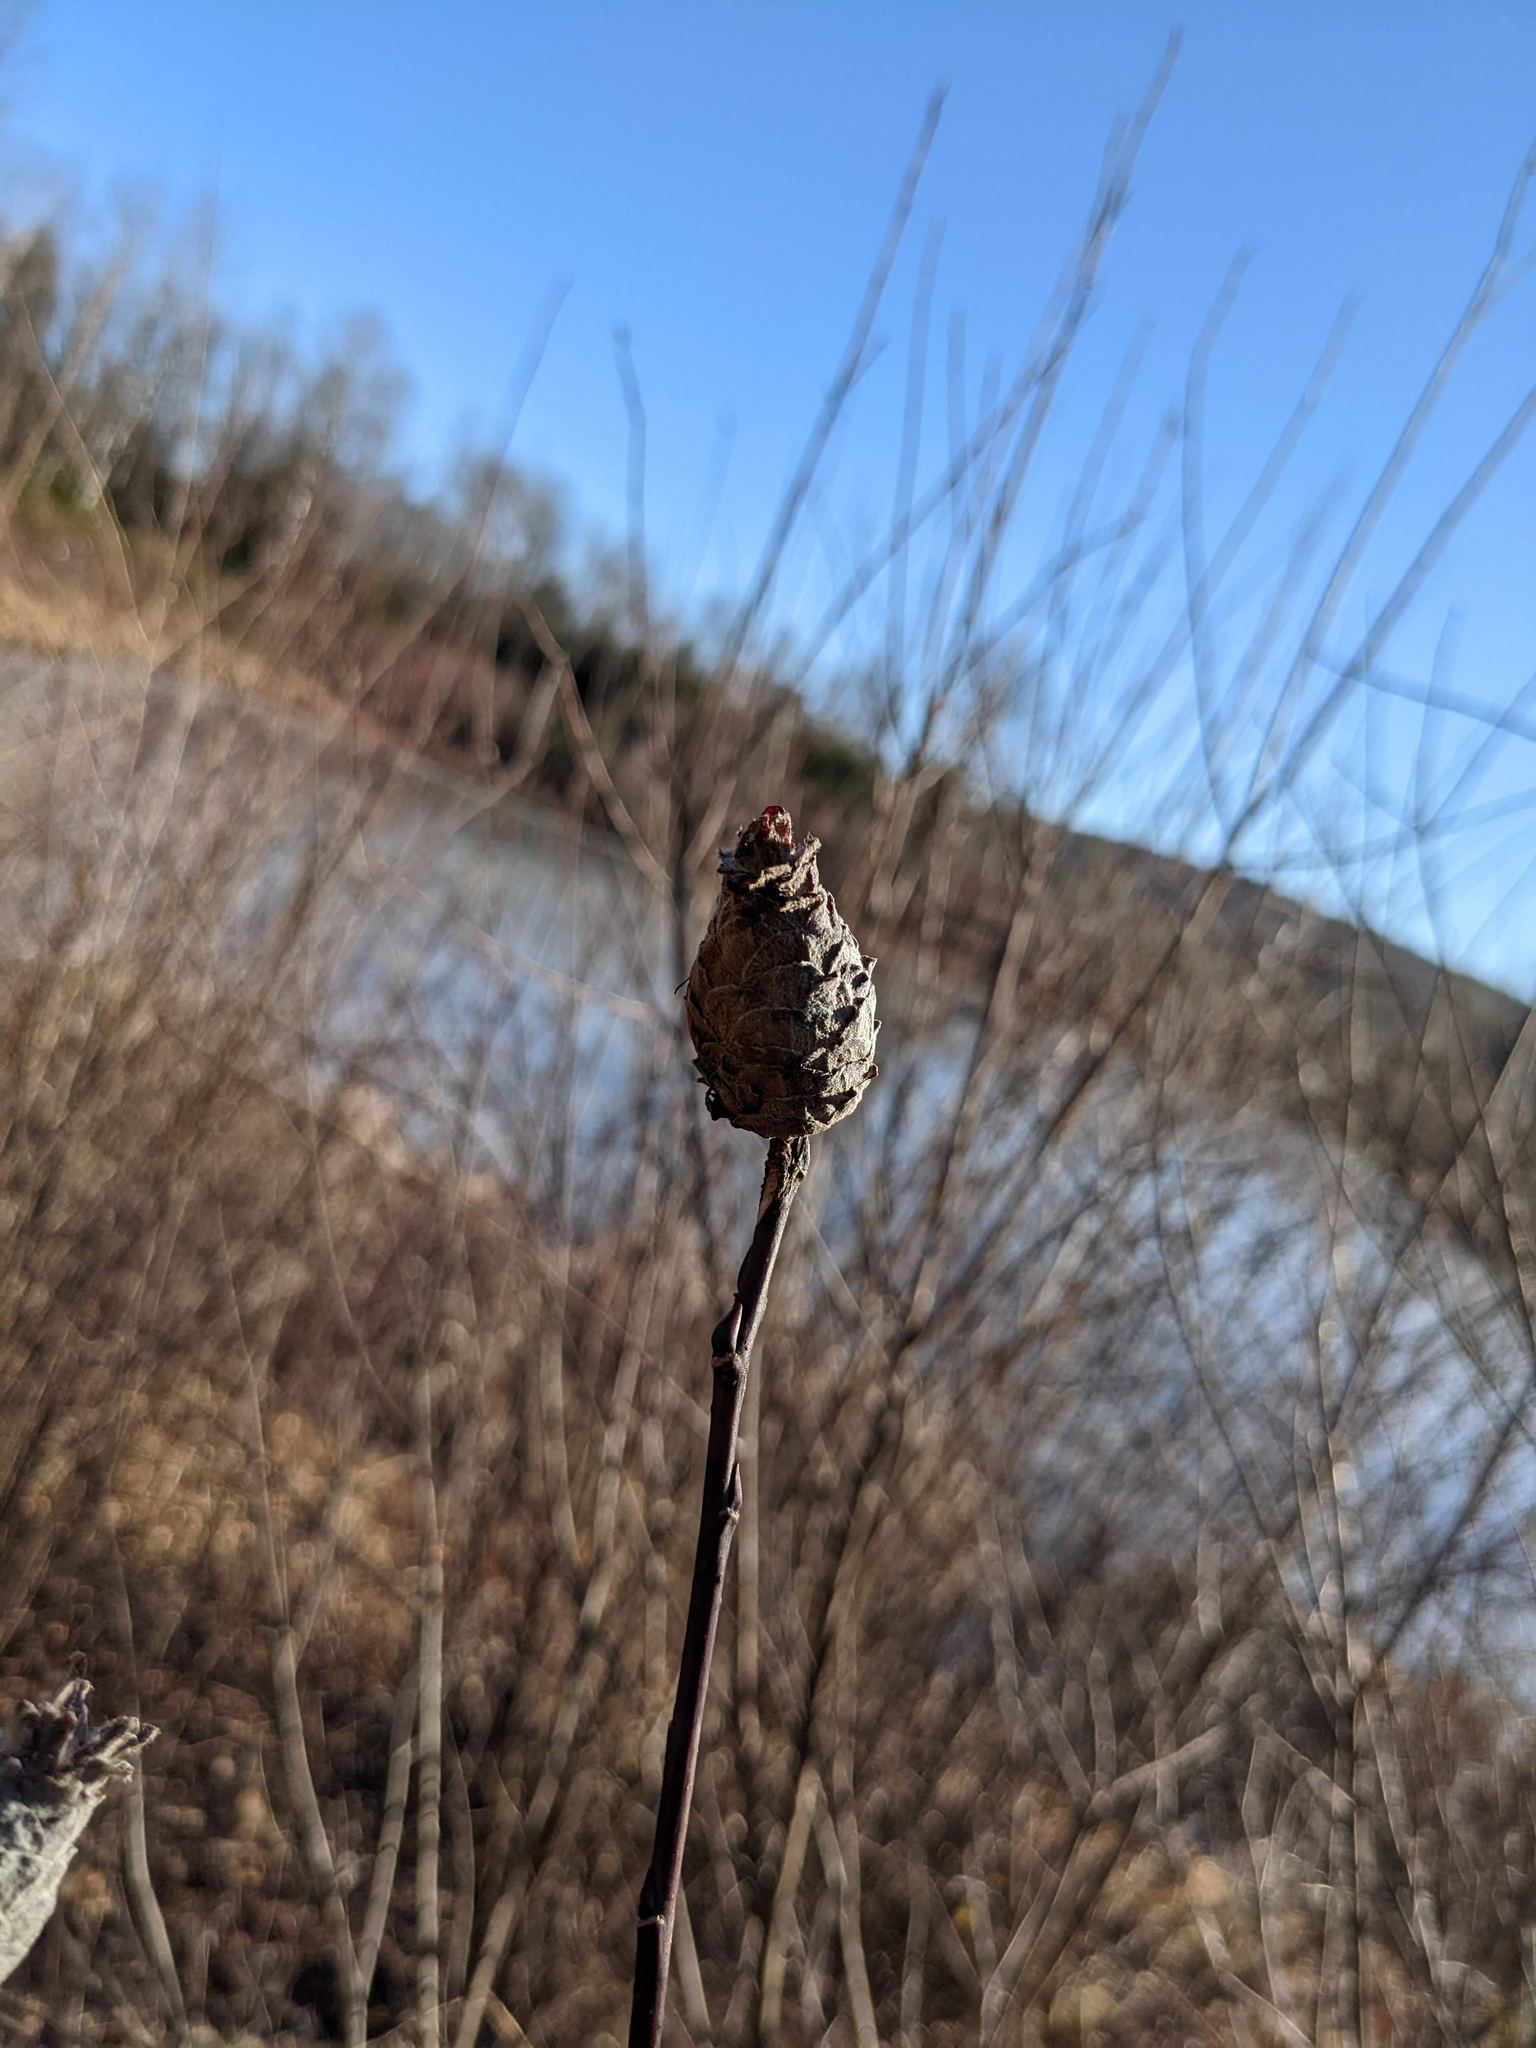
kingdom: Animalia
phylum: Arthropoda
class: Insecta
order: Diptera
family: Cecidomyiidae
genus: Rabdophaga
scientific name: Rabdophaga strobiloides
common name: Willow pinecone gall midge
